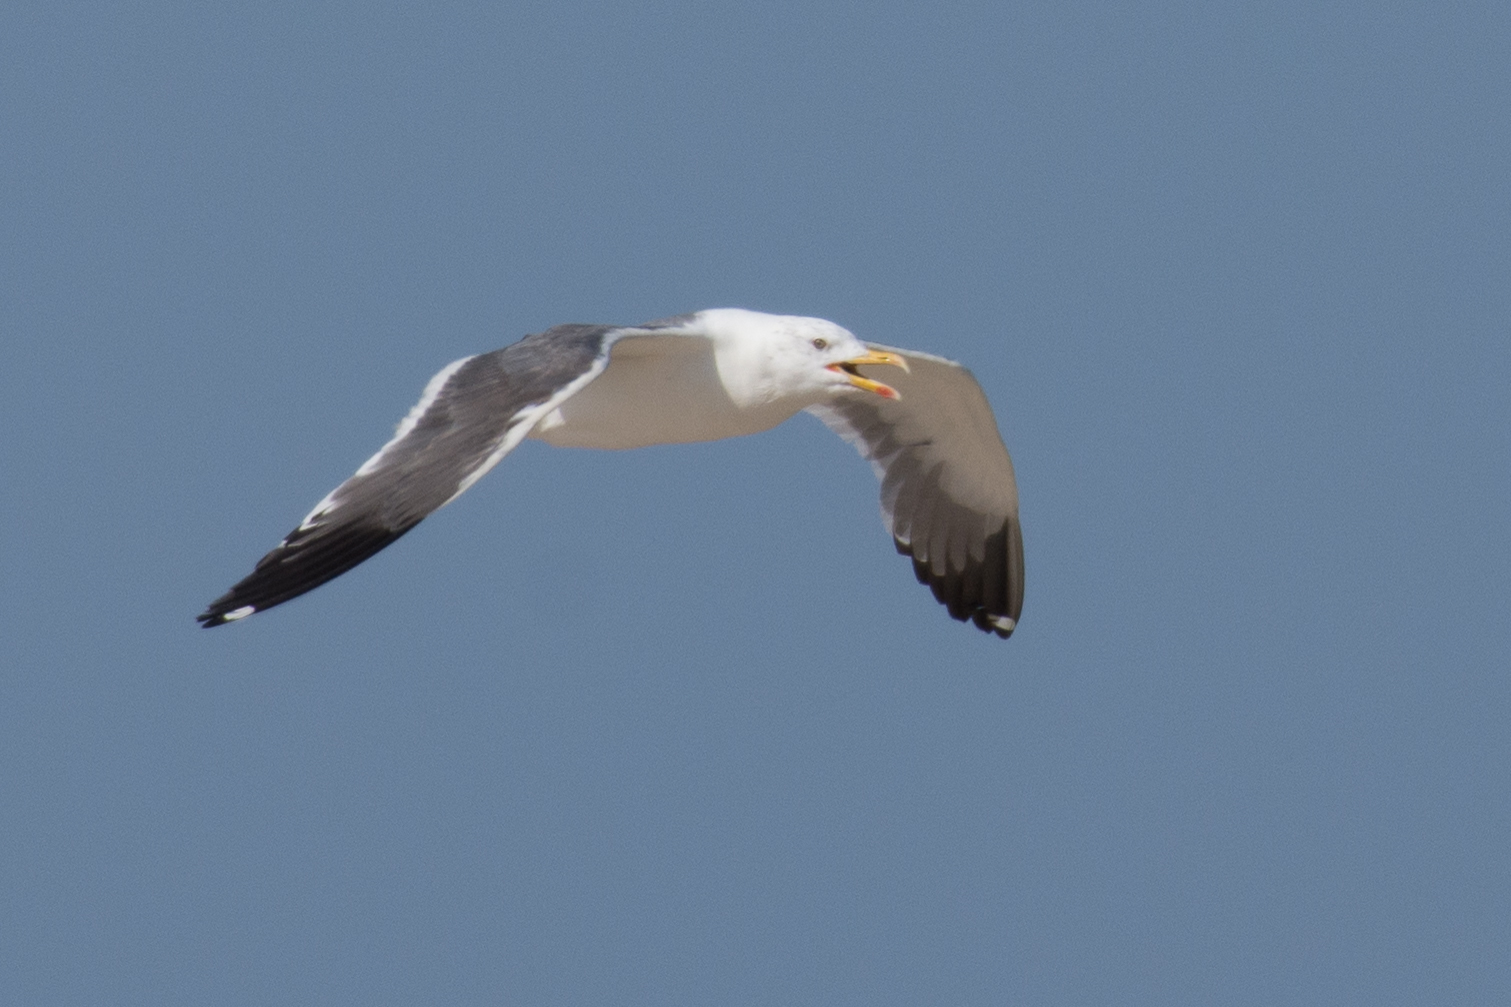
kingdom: Animalia
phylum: Chordata
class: Aves
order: Charadriiformes
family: Laridae
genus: Larus
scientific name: Larus fuscus
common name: Lesser black-backed gull
